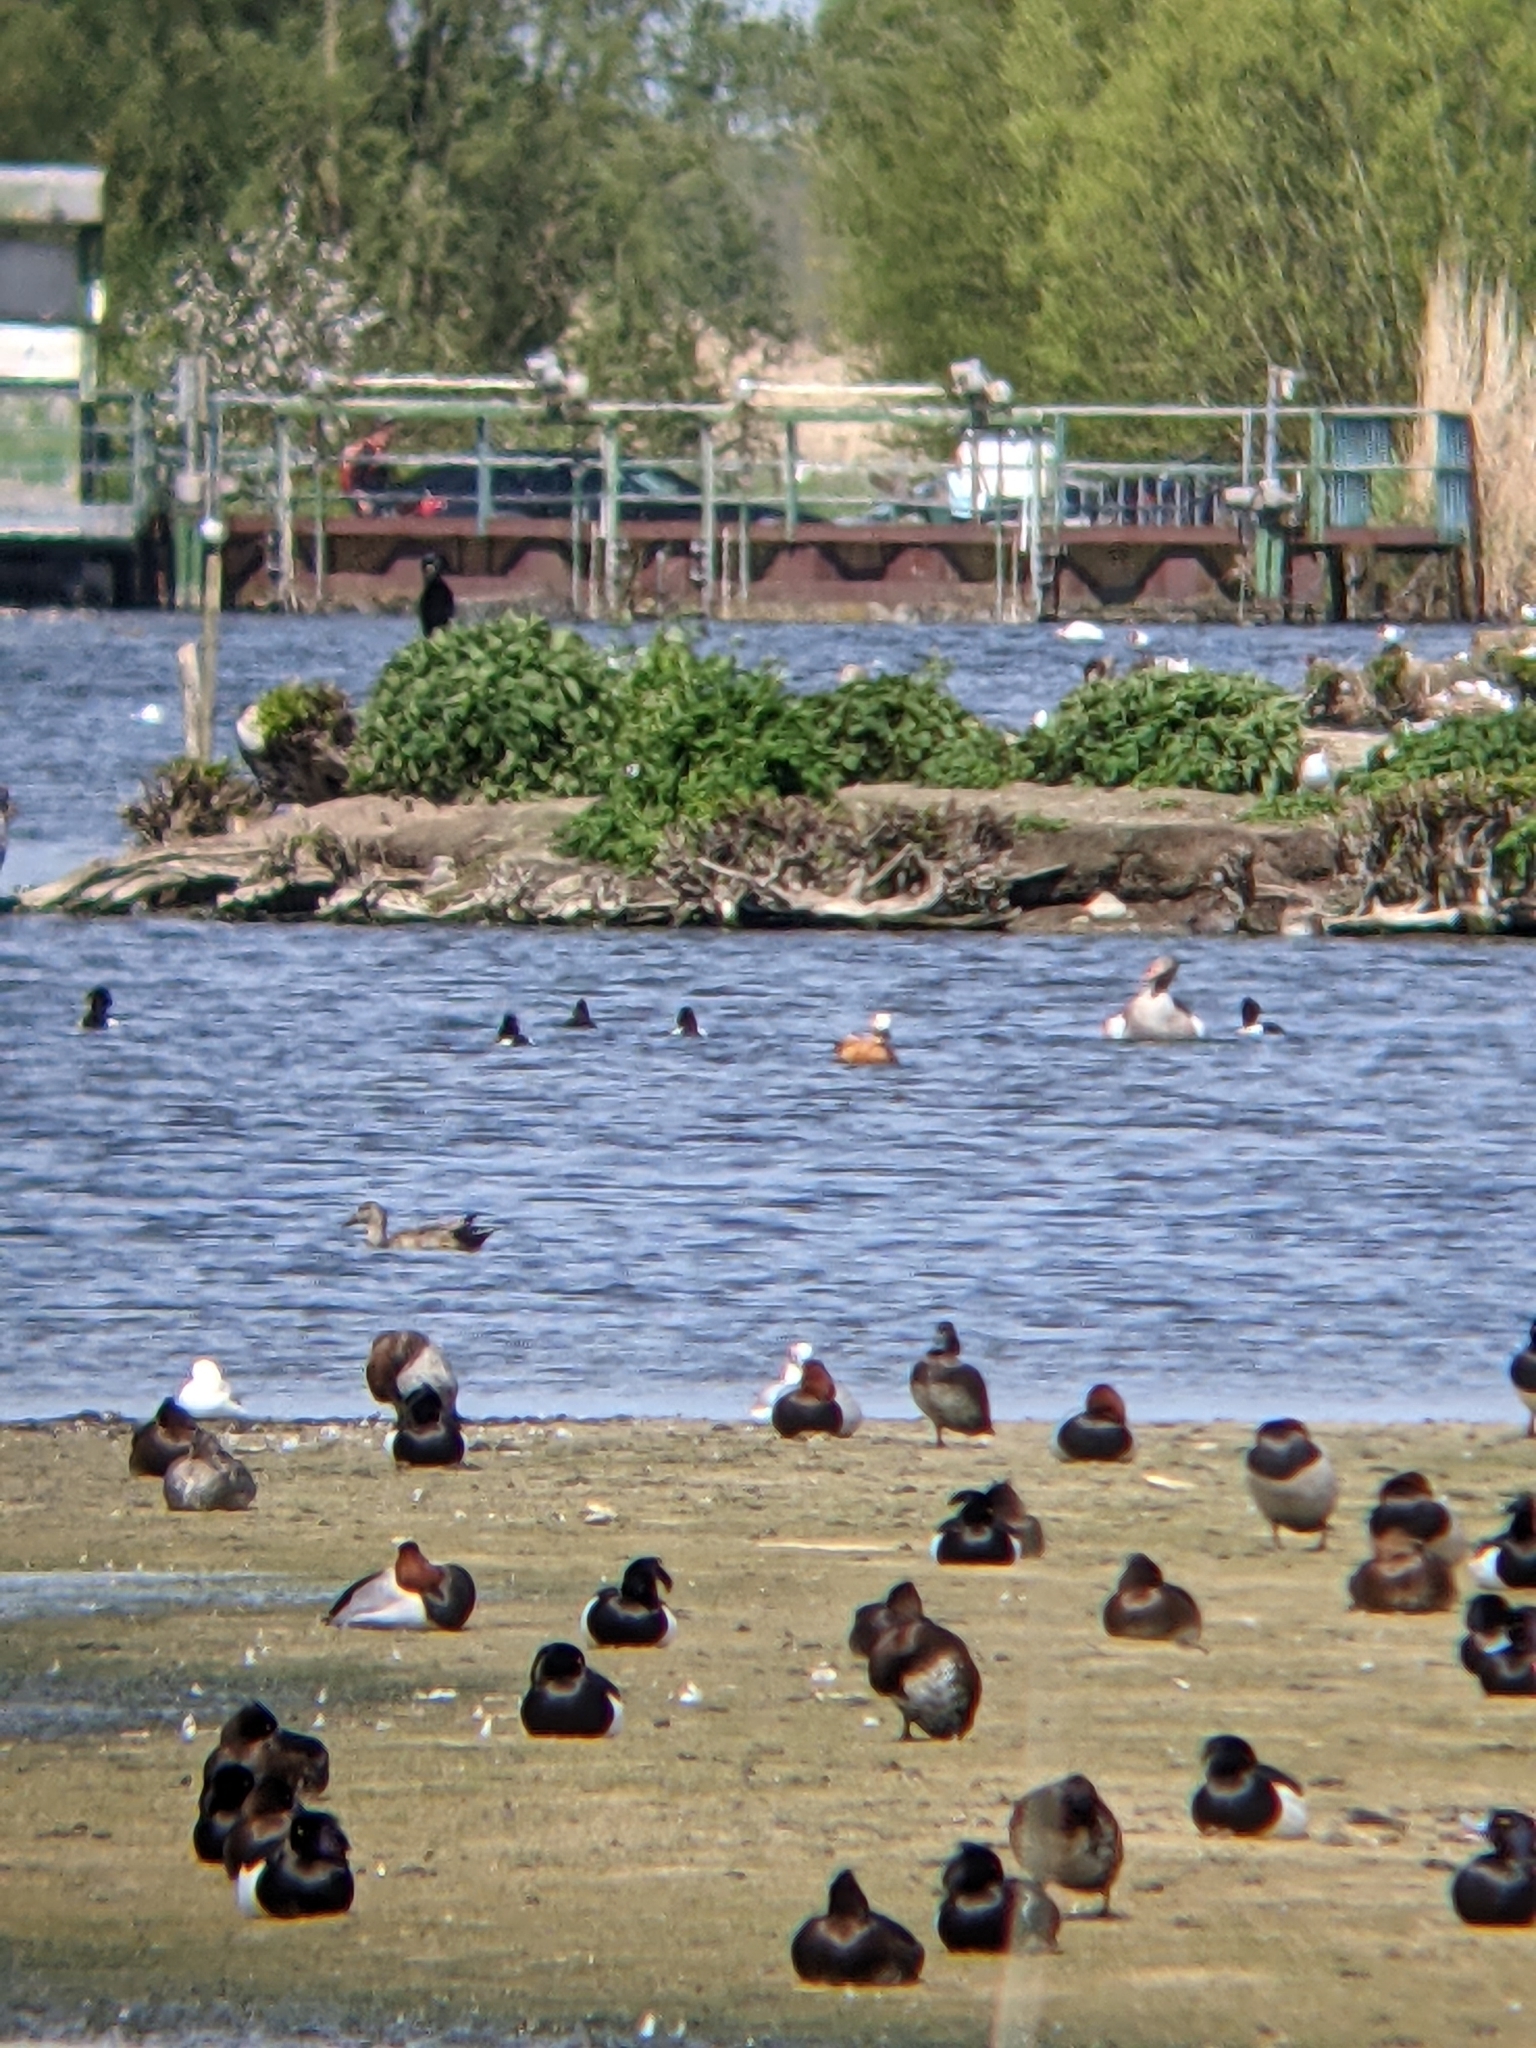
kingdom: Animalia
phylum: Chordata
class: Aves
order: Anseriformes
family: Anatidae
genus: Tadorna
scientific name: Tadorna ferruginea
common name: Ruddy shelduck
